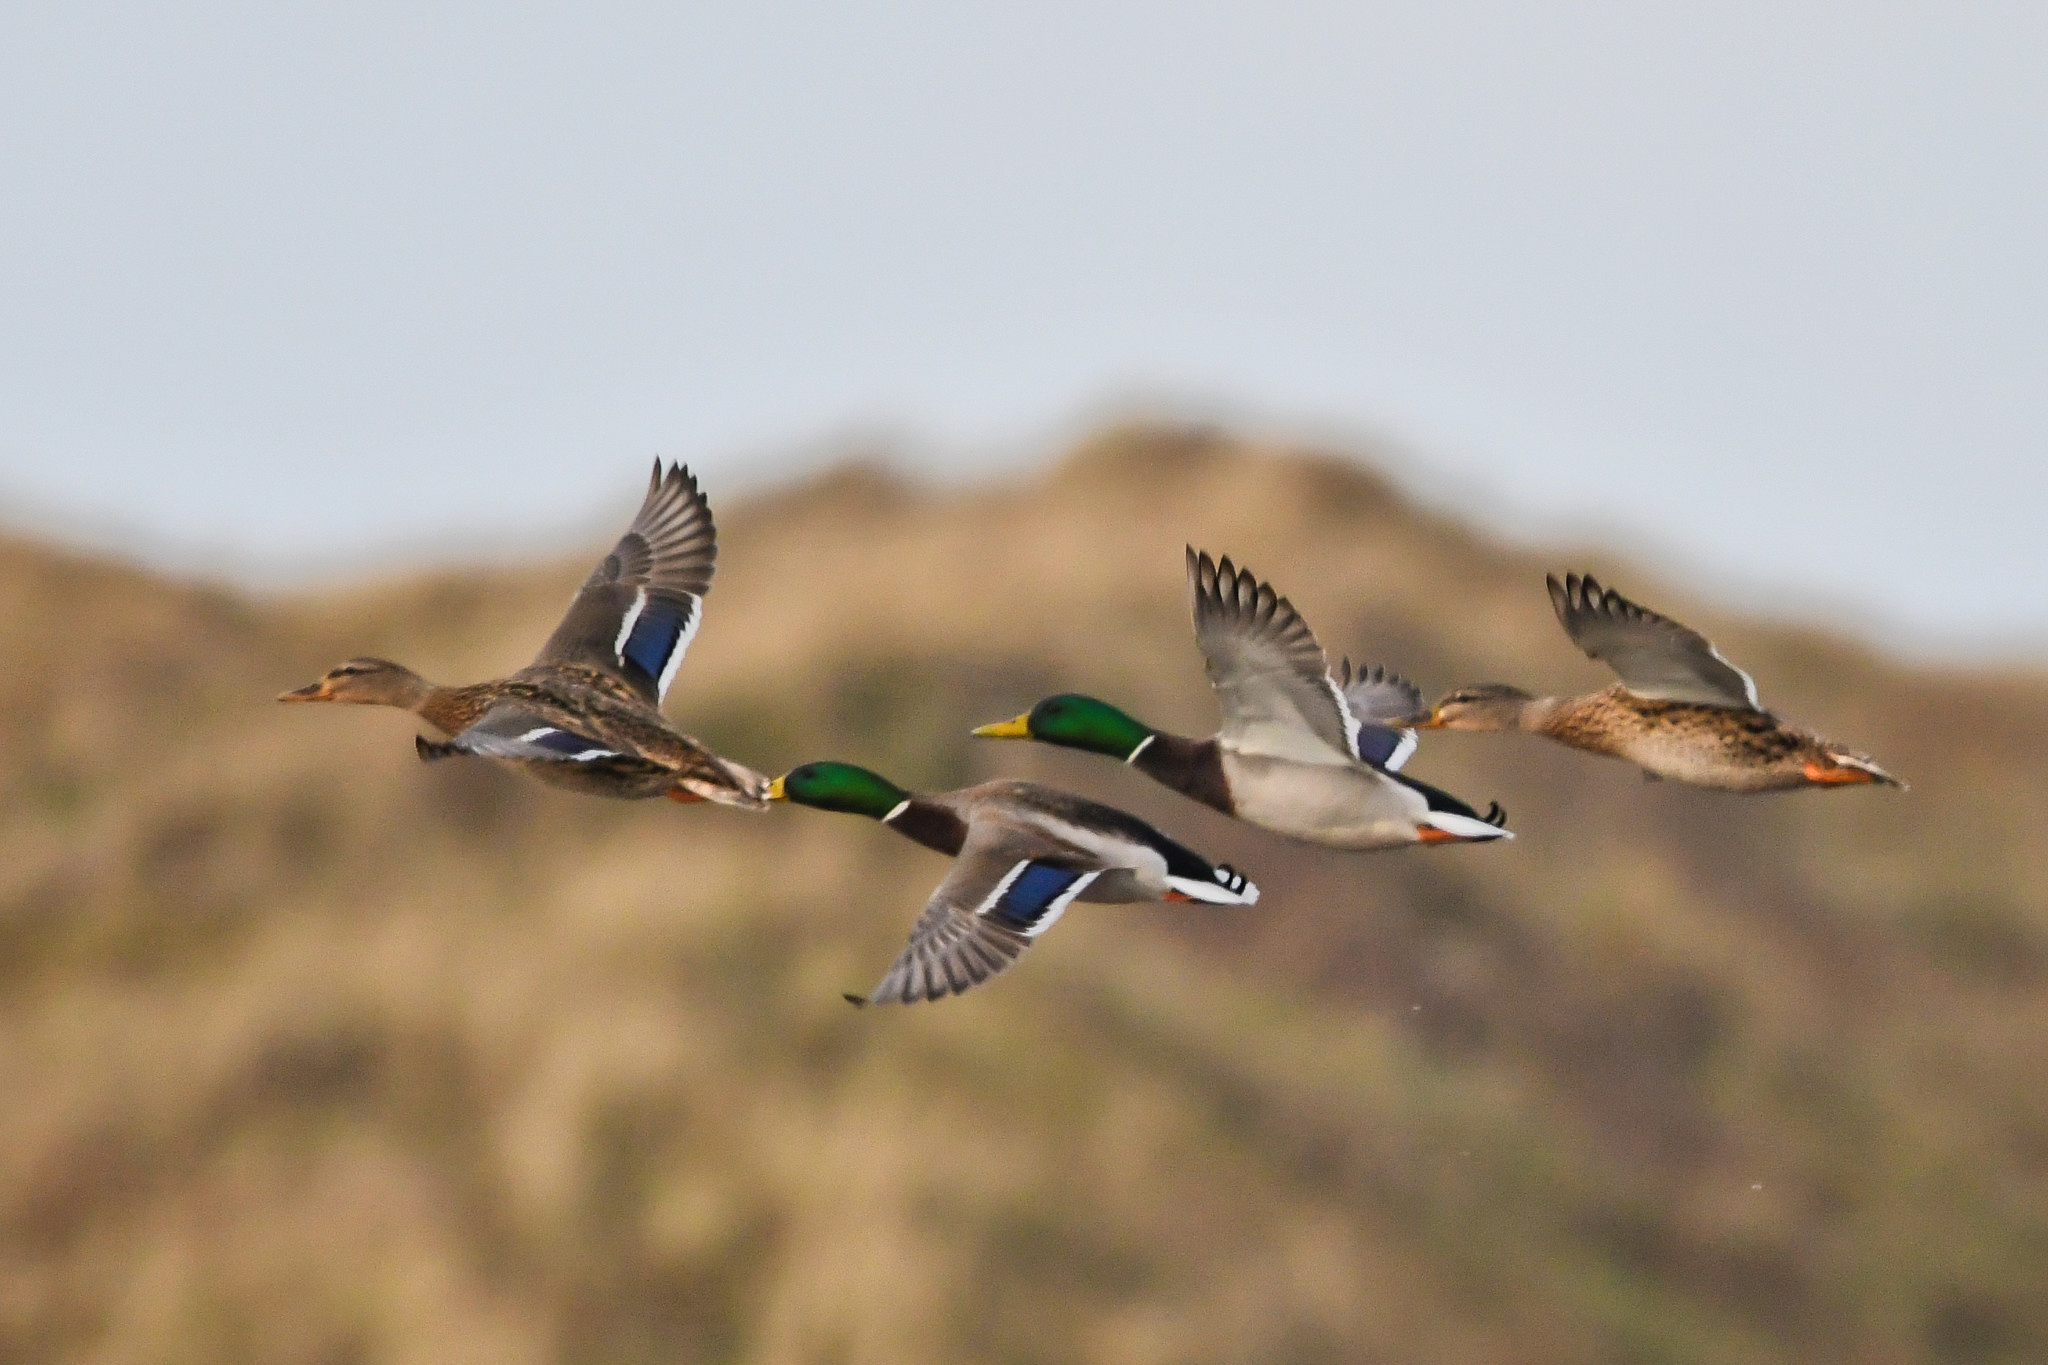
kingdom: Animalia
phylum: Chordata
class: Aves
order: Anseriformes
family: Anatidae
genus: Anas
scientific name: Anas platyrhynchos
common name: Mallard
